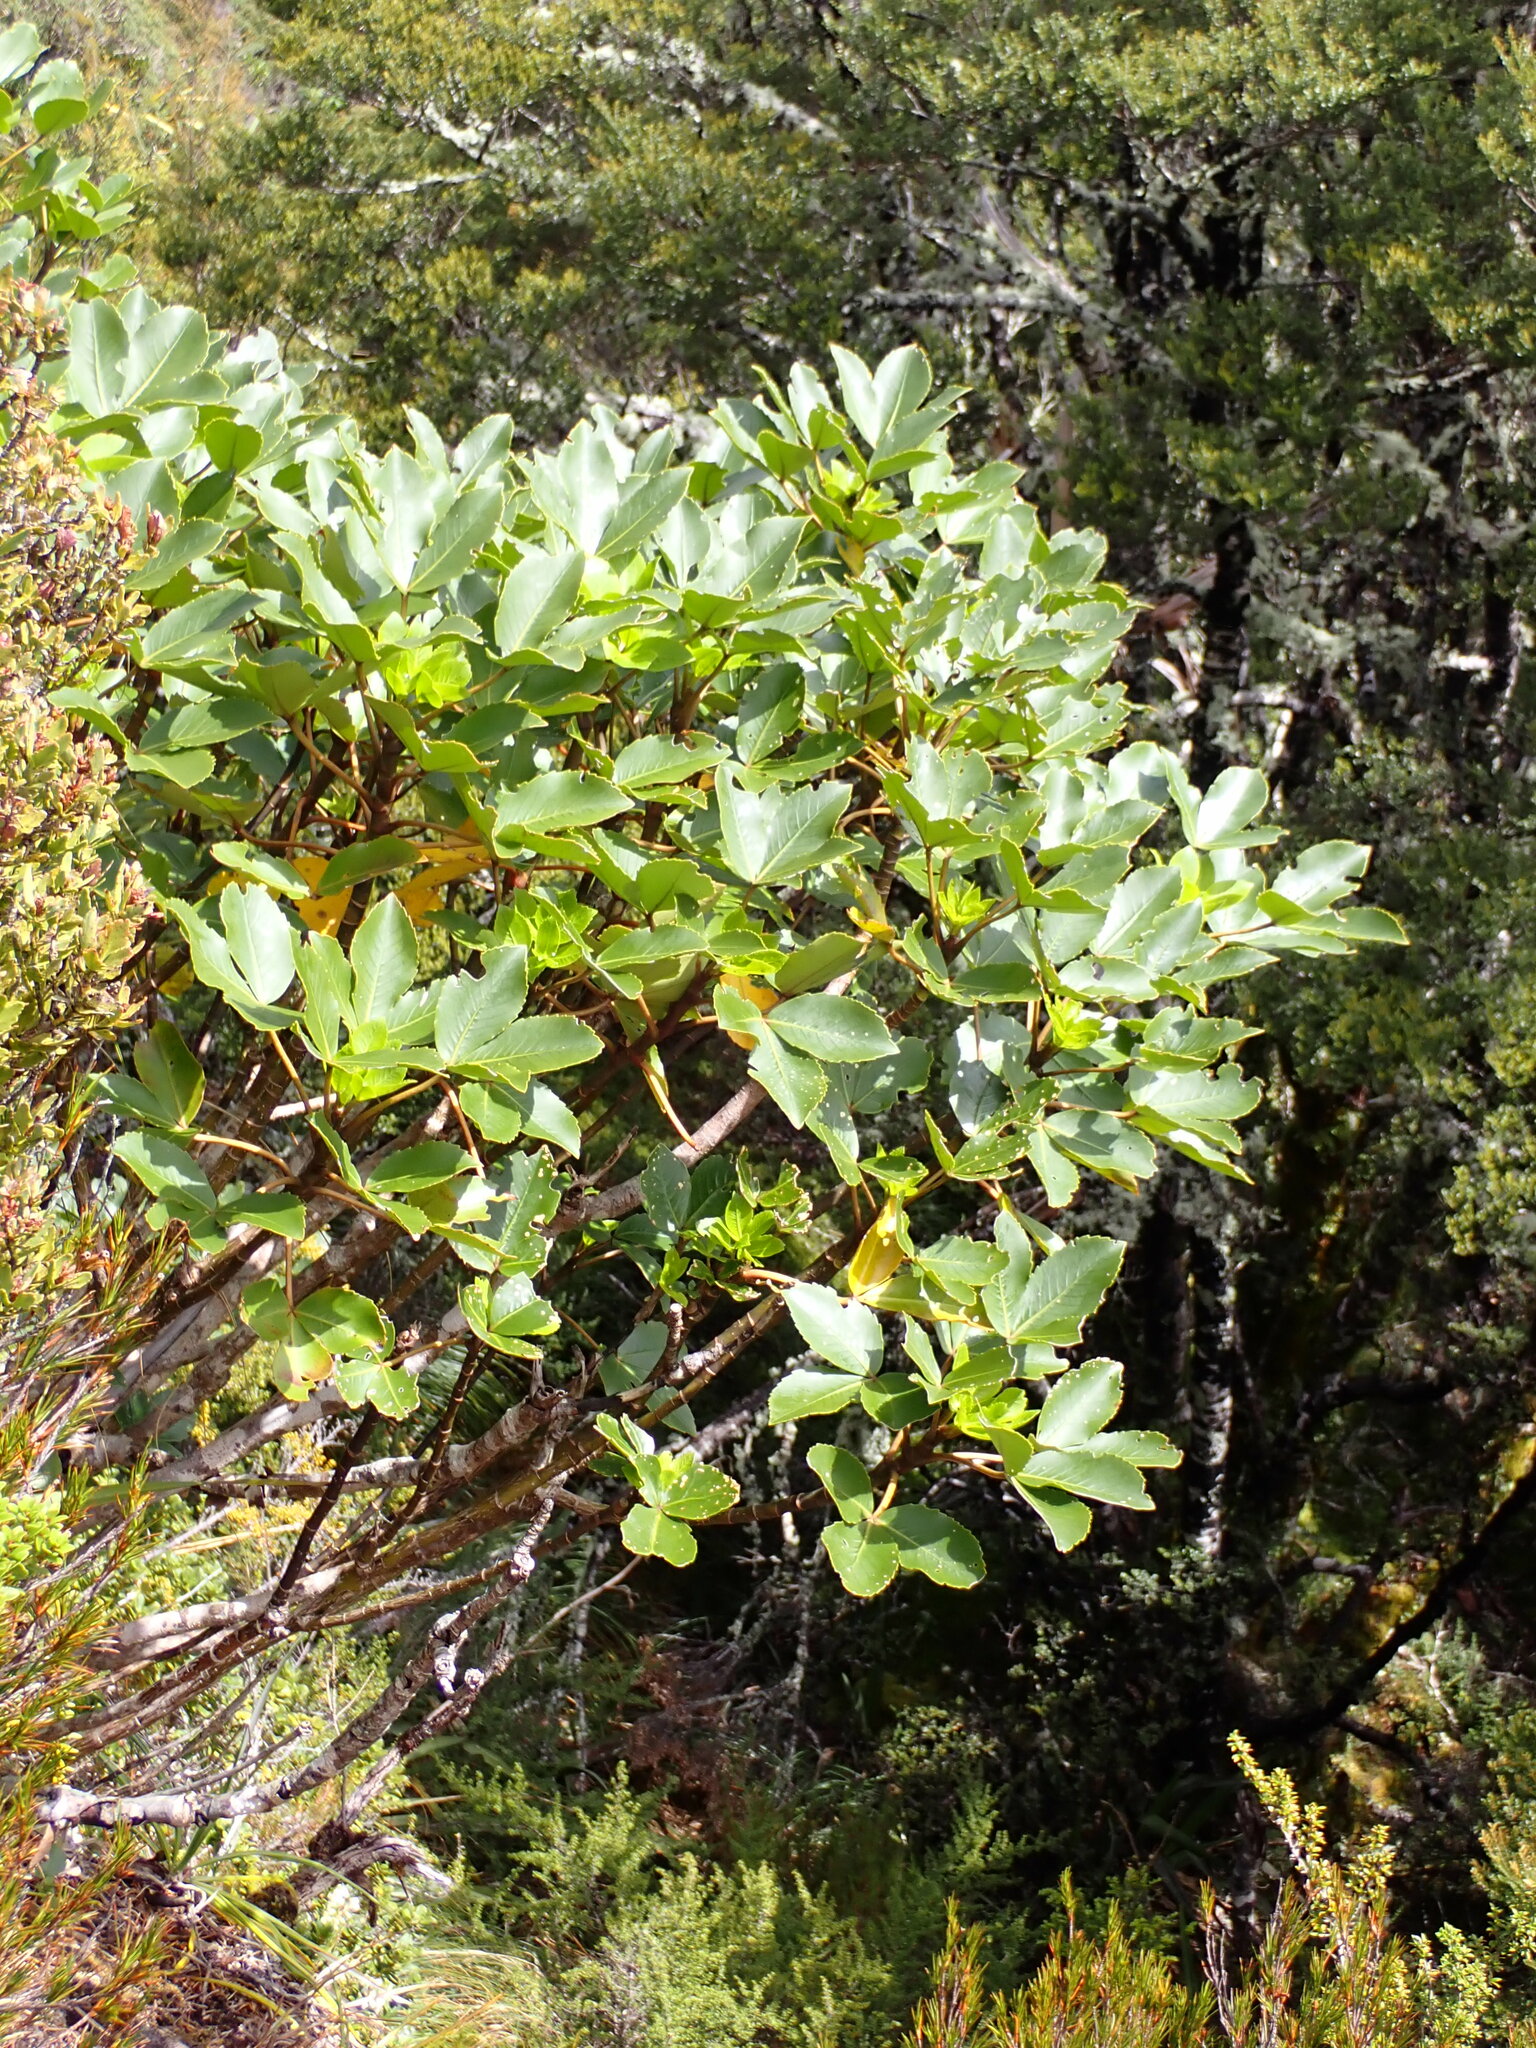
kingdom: Plantae
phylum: Tracheophyta
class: Magnoliopsida
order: Apiales
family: Araliaceae
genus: Neopanax
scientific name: Neopanax colensoi
